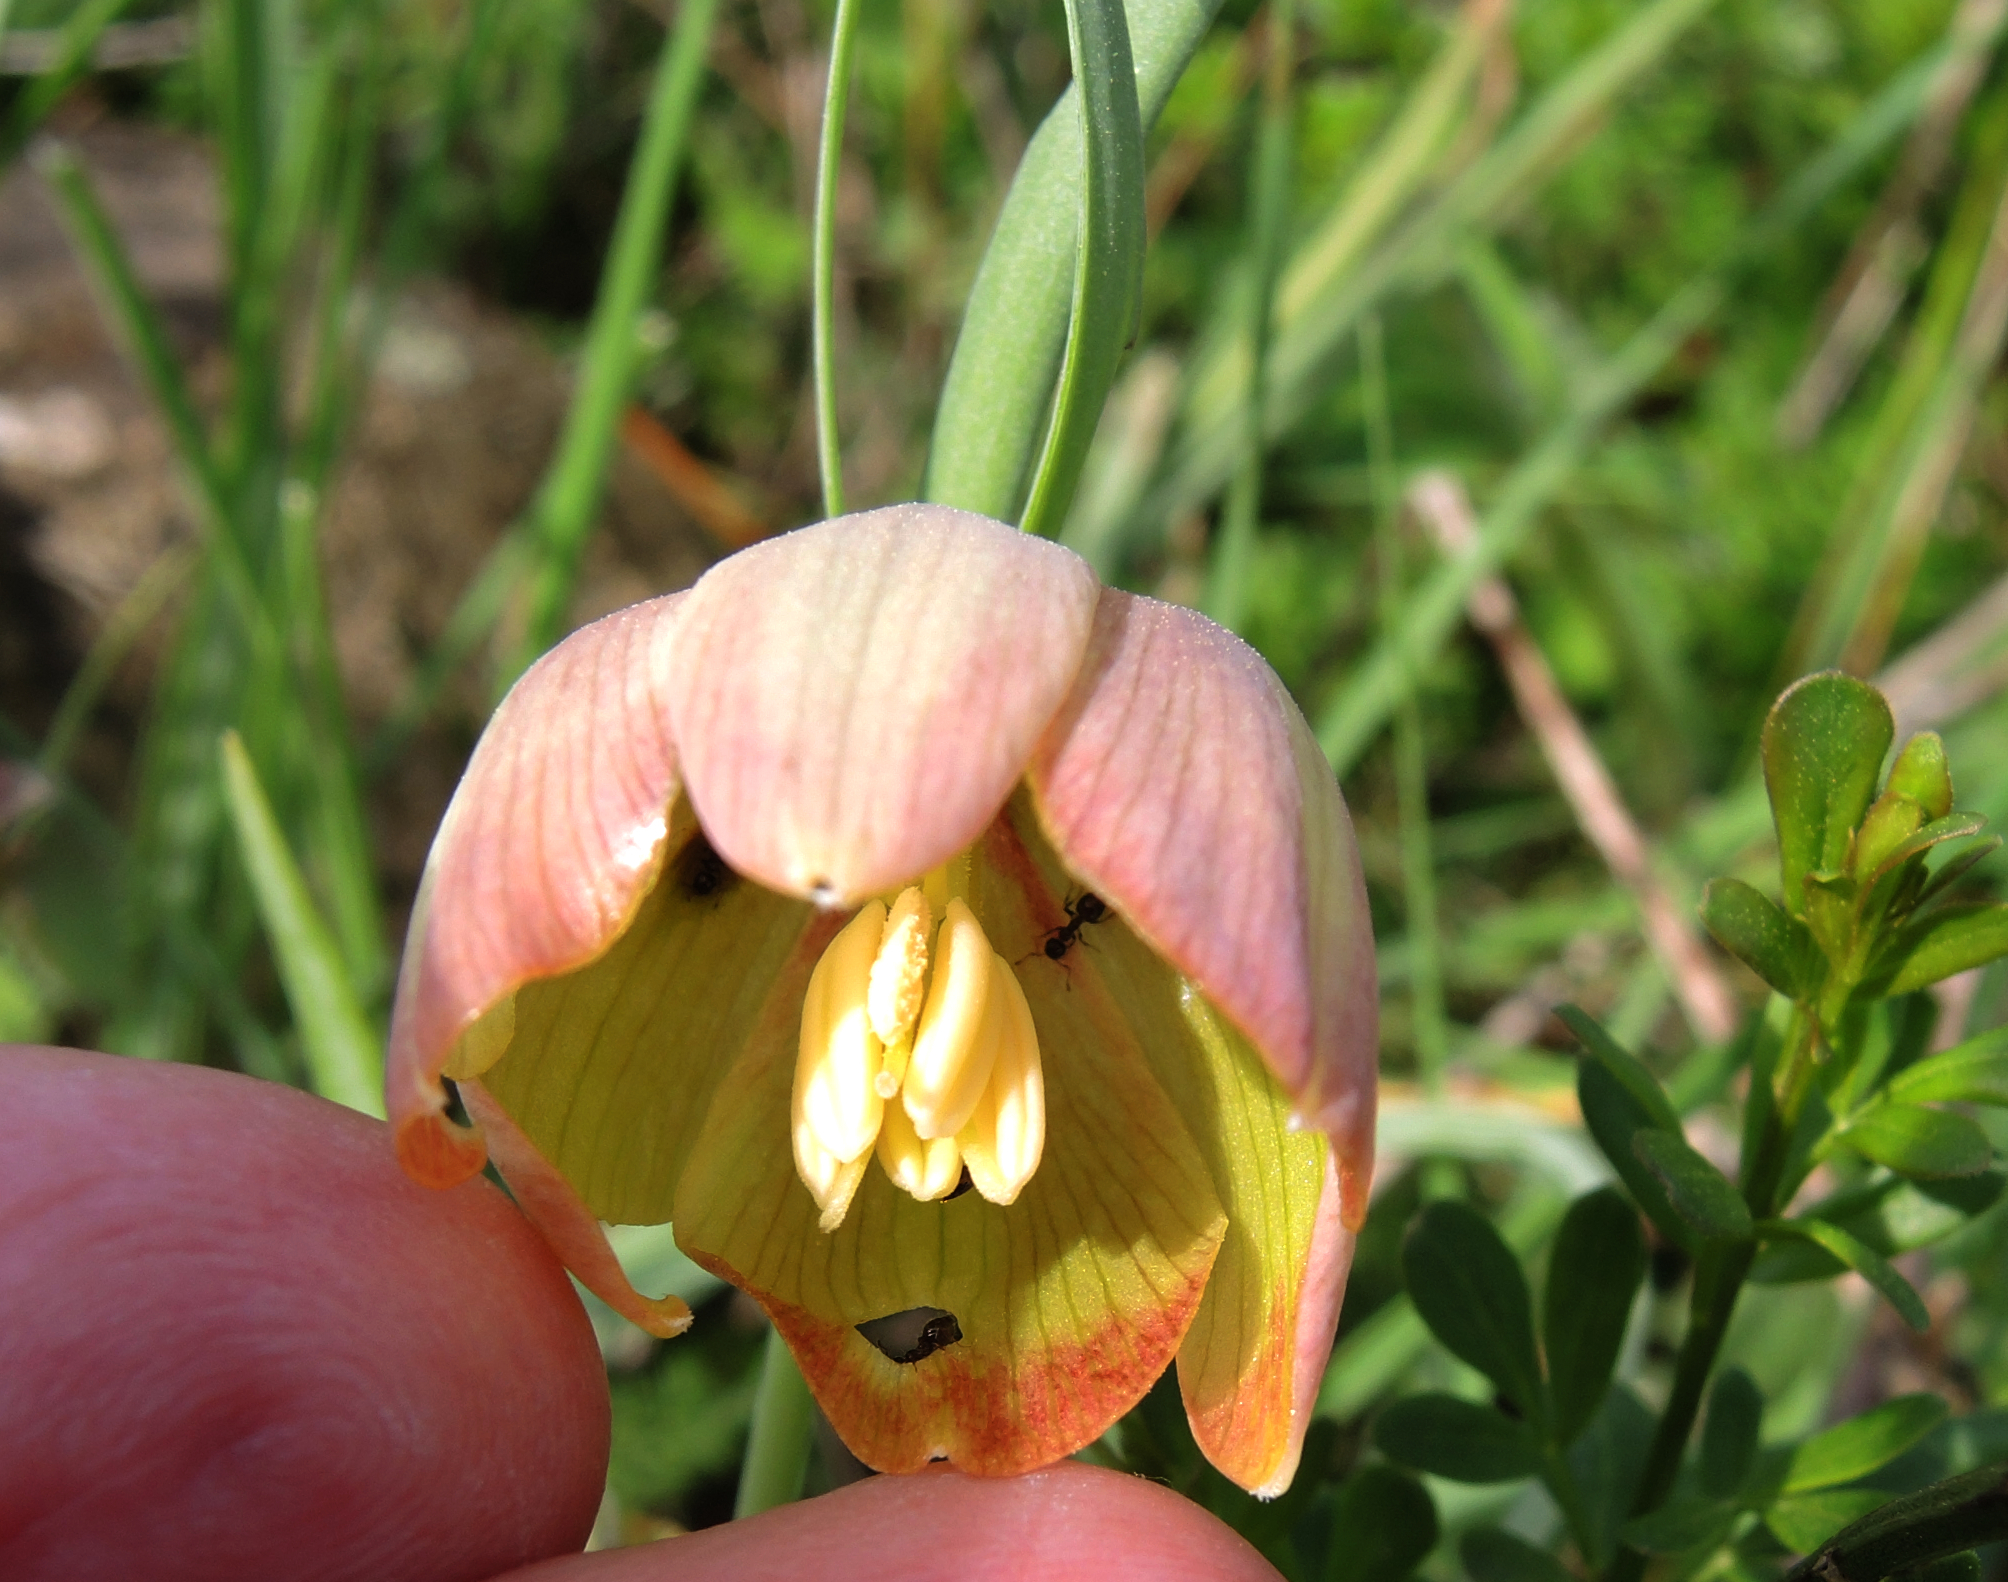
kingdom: Plantae
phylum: Tracheophyta
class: Liliopsida
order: Liliales
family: Liliaceae
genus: Fritillaria
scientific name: Fritillaria pontica
